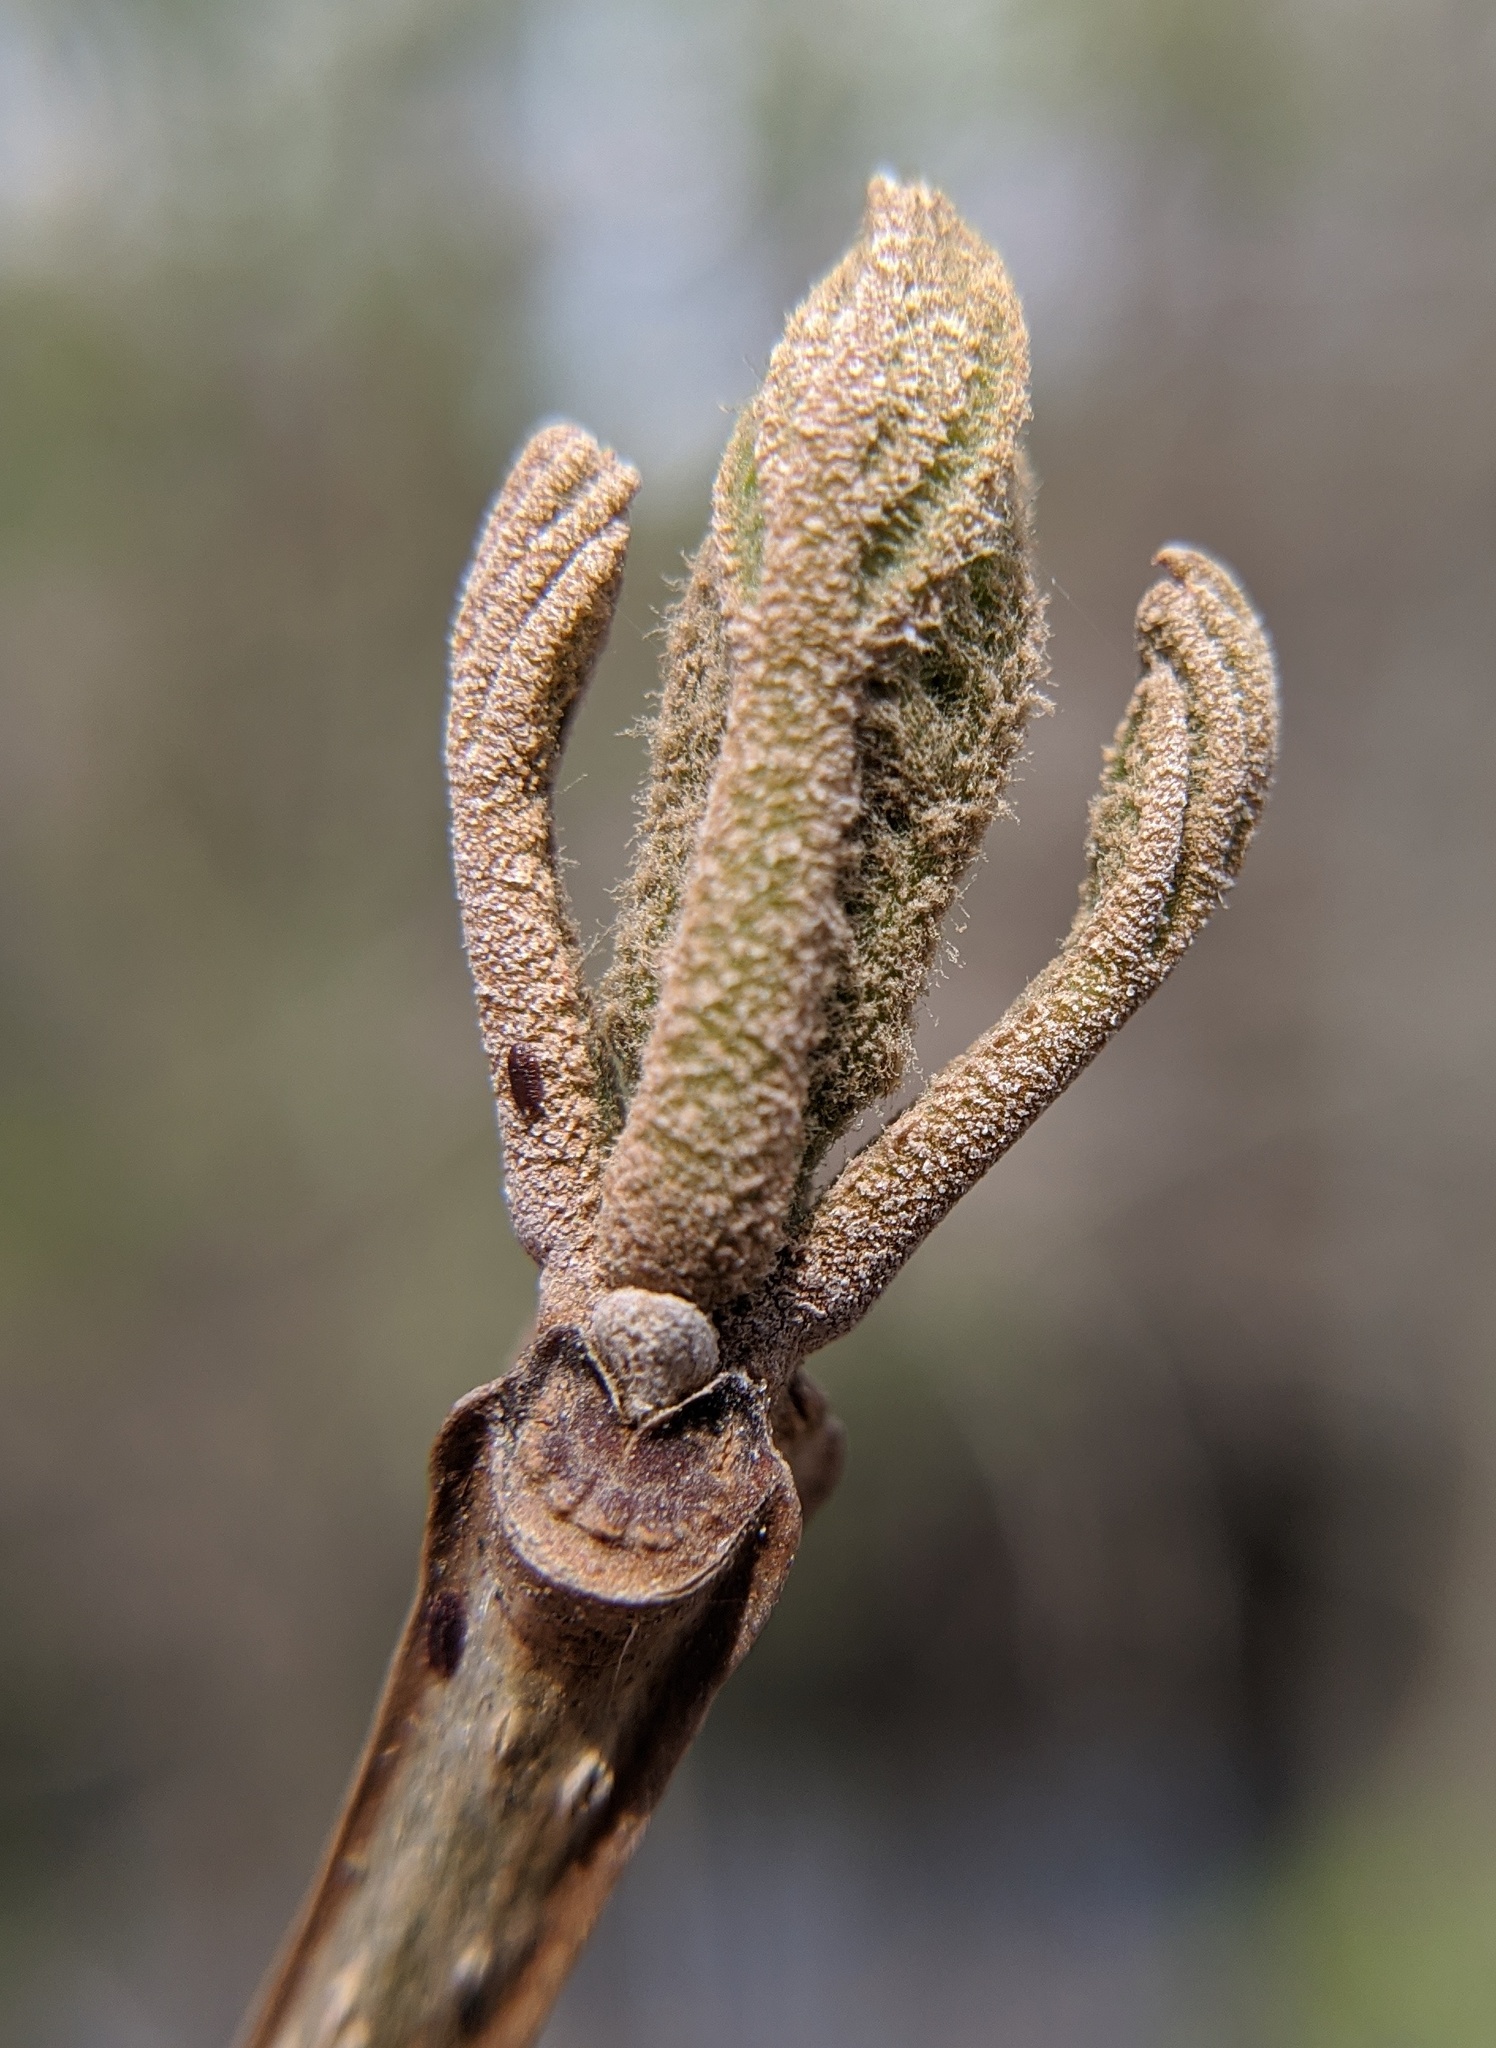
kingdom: Plantae
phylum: Tracheophyta
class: Magnoliopsida
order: Lamiales
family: Oleaceae
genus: Fraxinus
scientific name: Fraxinus quadrangulata
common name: Blue ash
